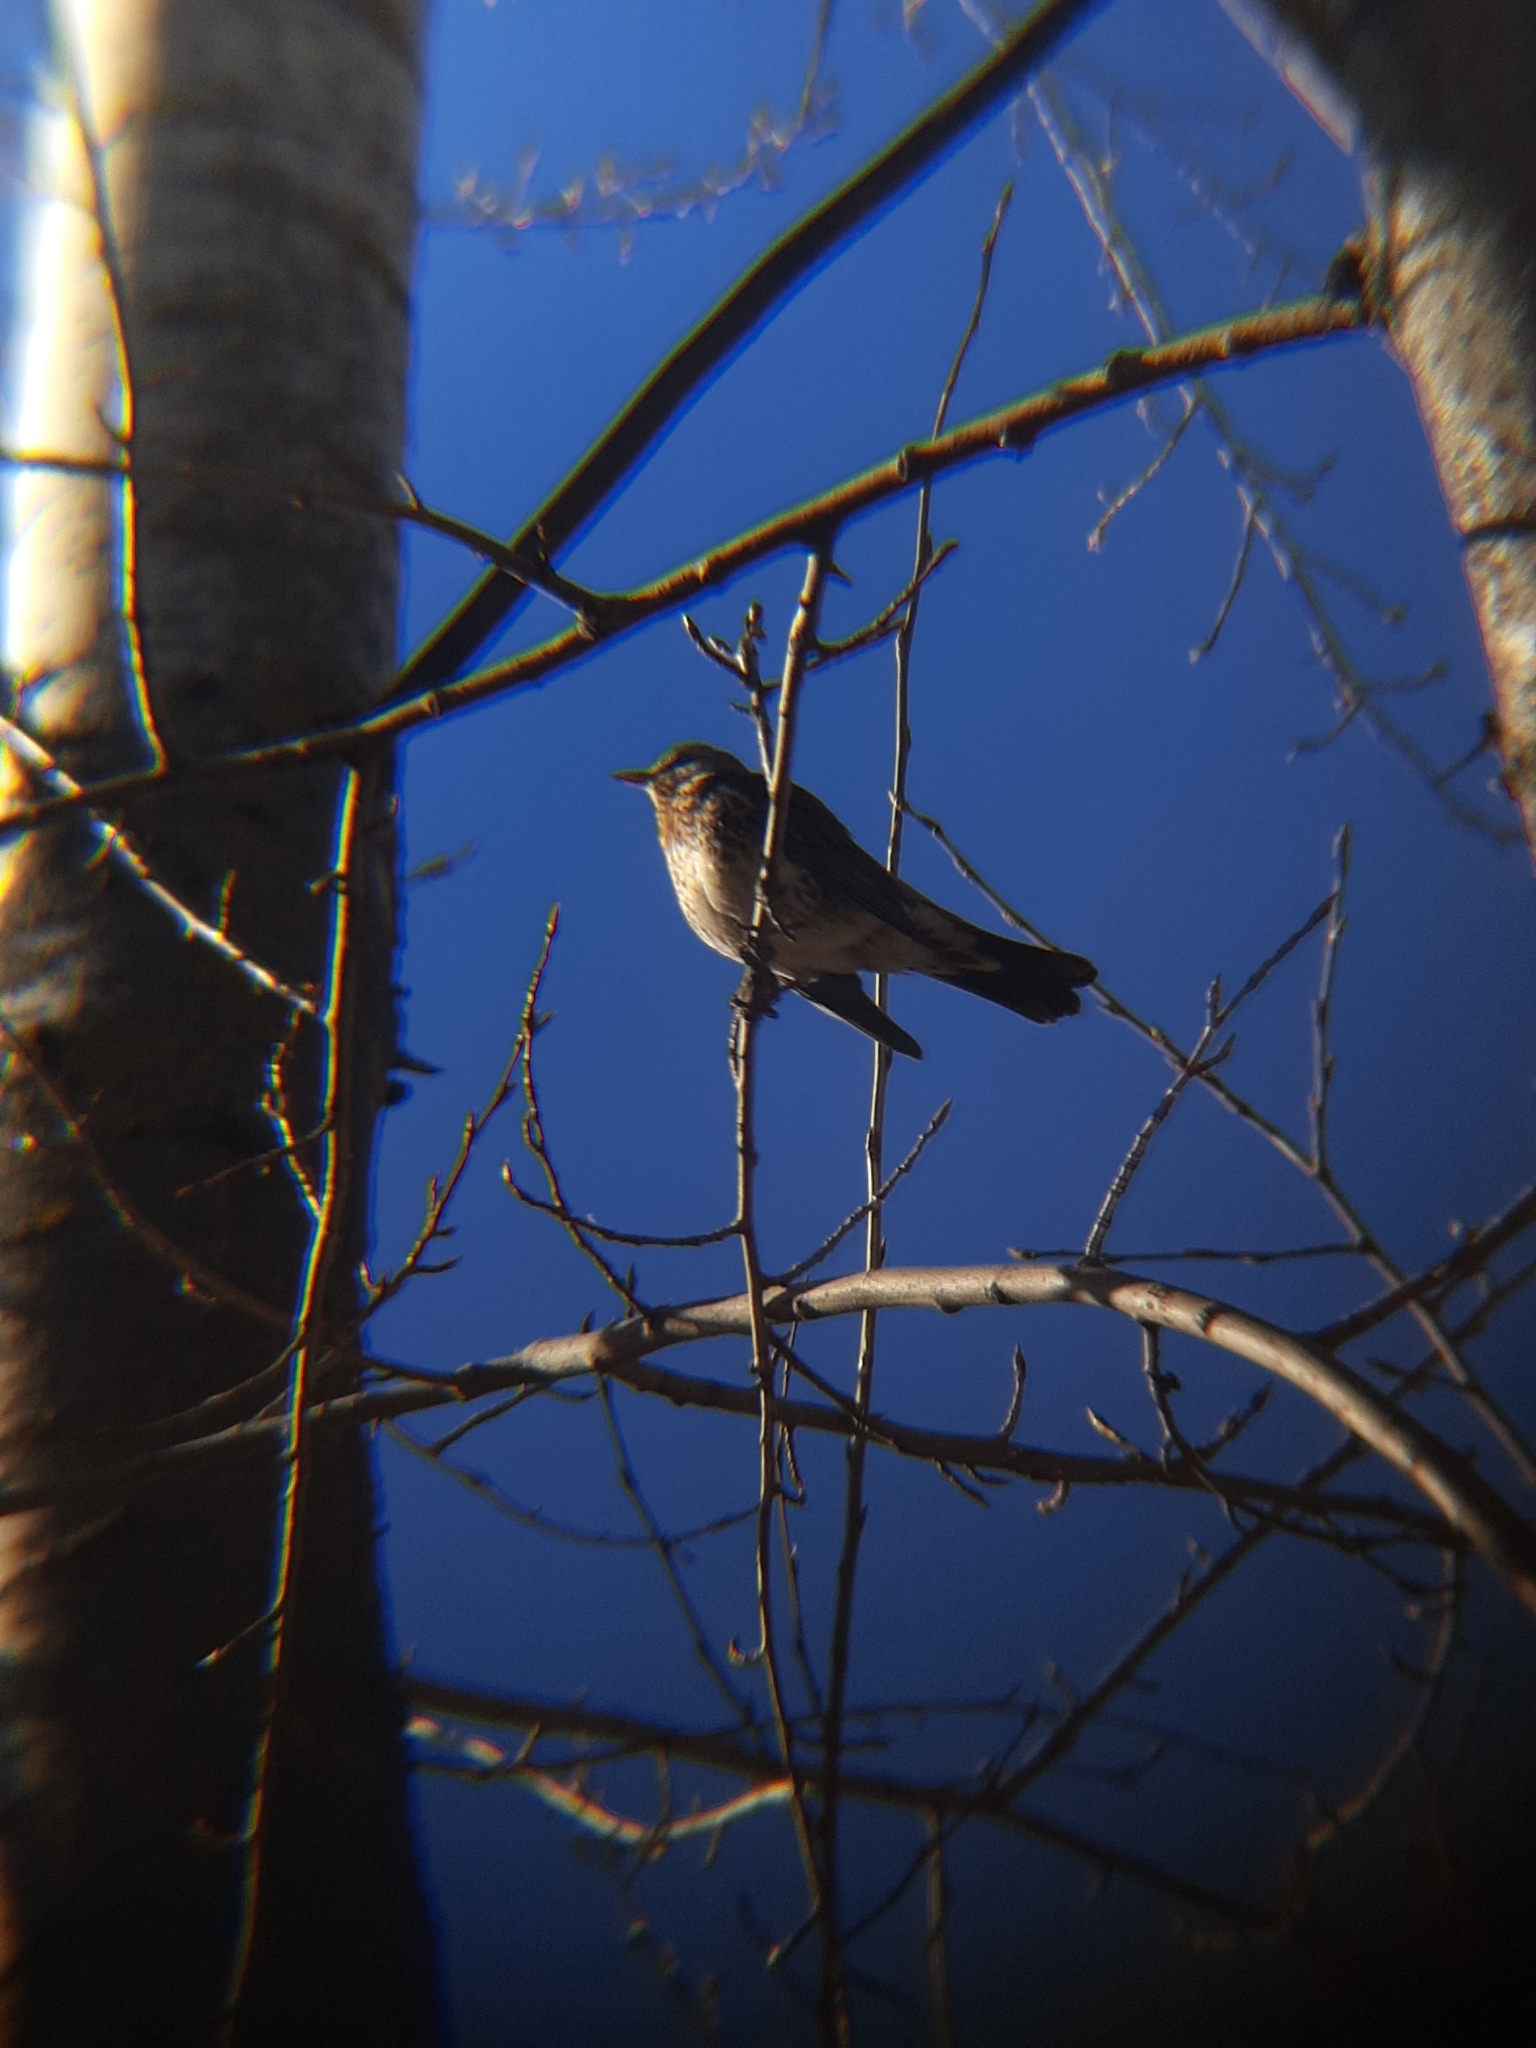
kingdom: Animalia
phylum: Chordata
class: Aves
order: Passeriformes
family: Turdidae
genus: Turdus
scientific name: Turdus pilaris
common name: Fieldfare
